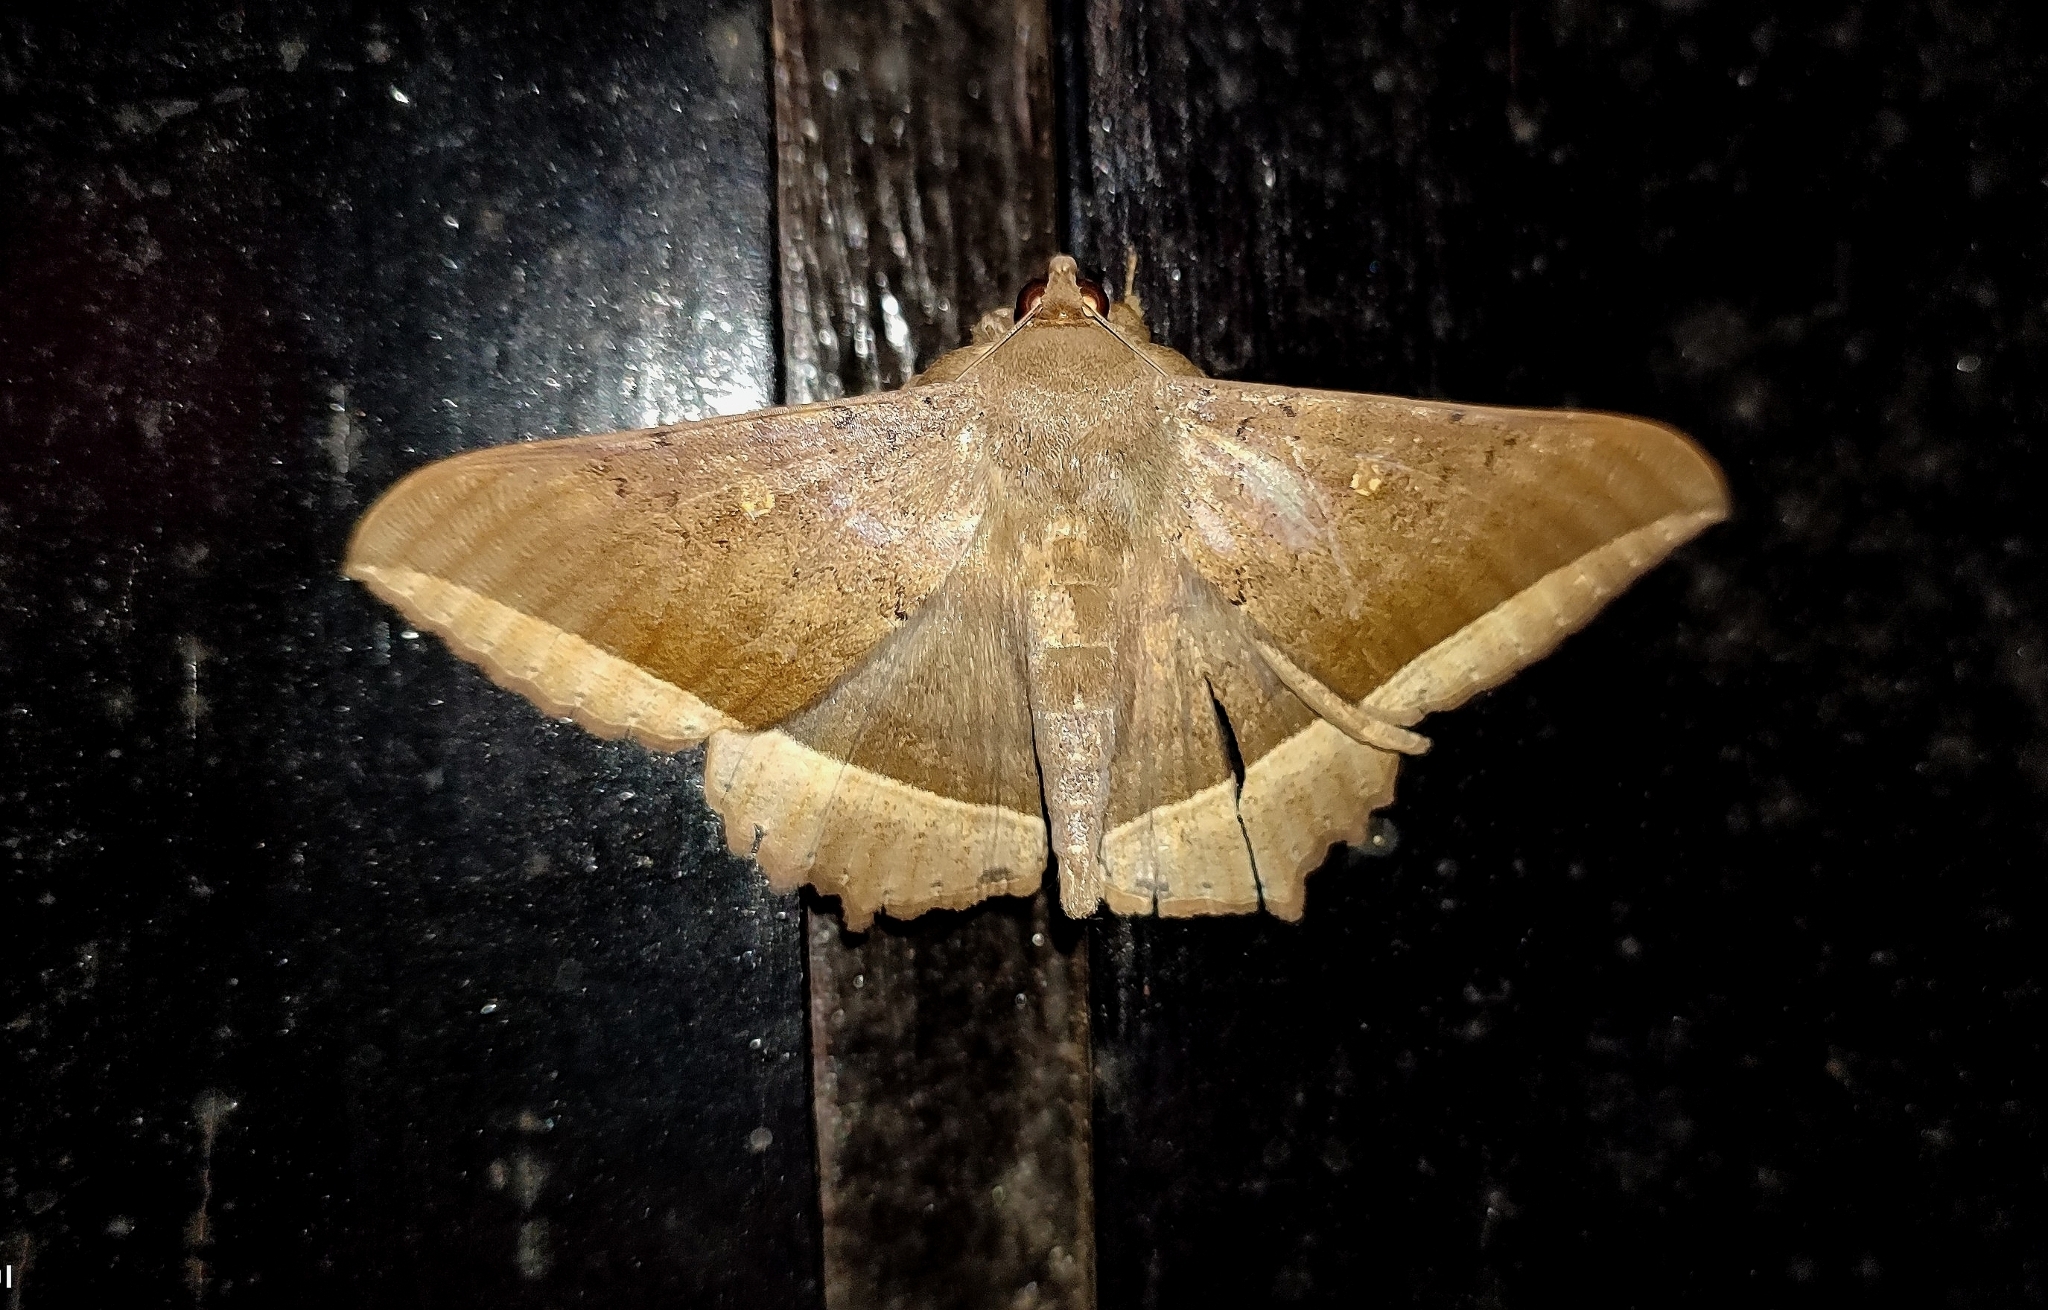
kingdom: Animalia
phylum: Arthropoda
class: Insecta
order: Lepidoptera
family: Erebidae
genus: Hulodes
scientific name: Hulodes caranea
